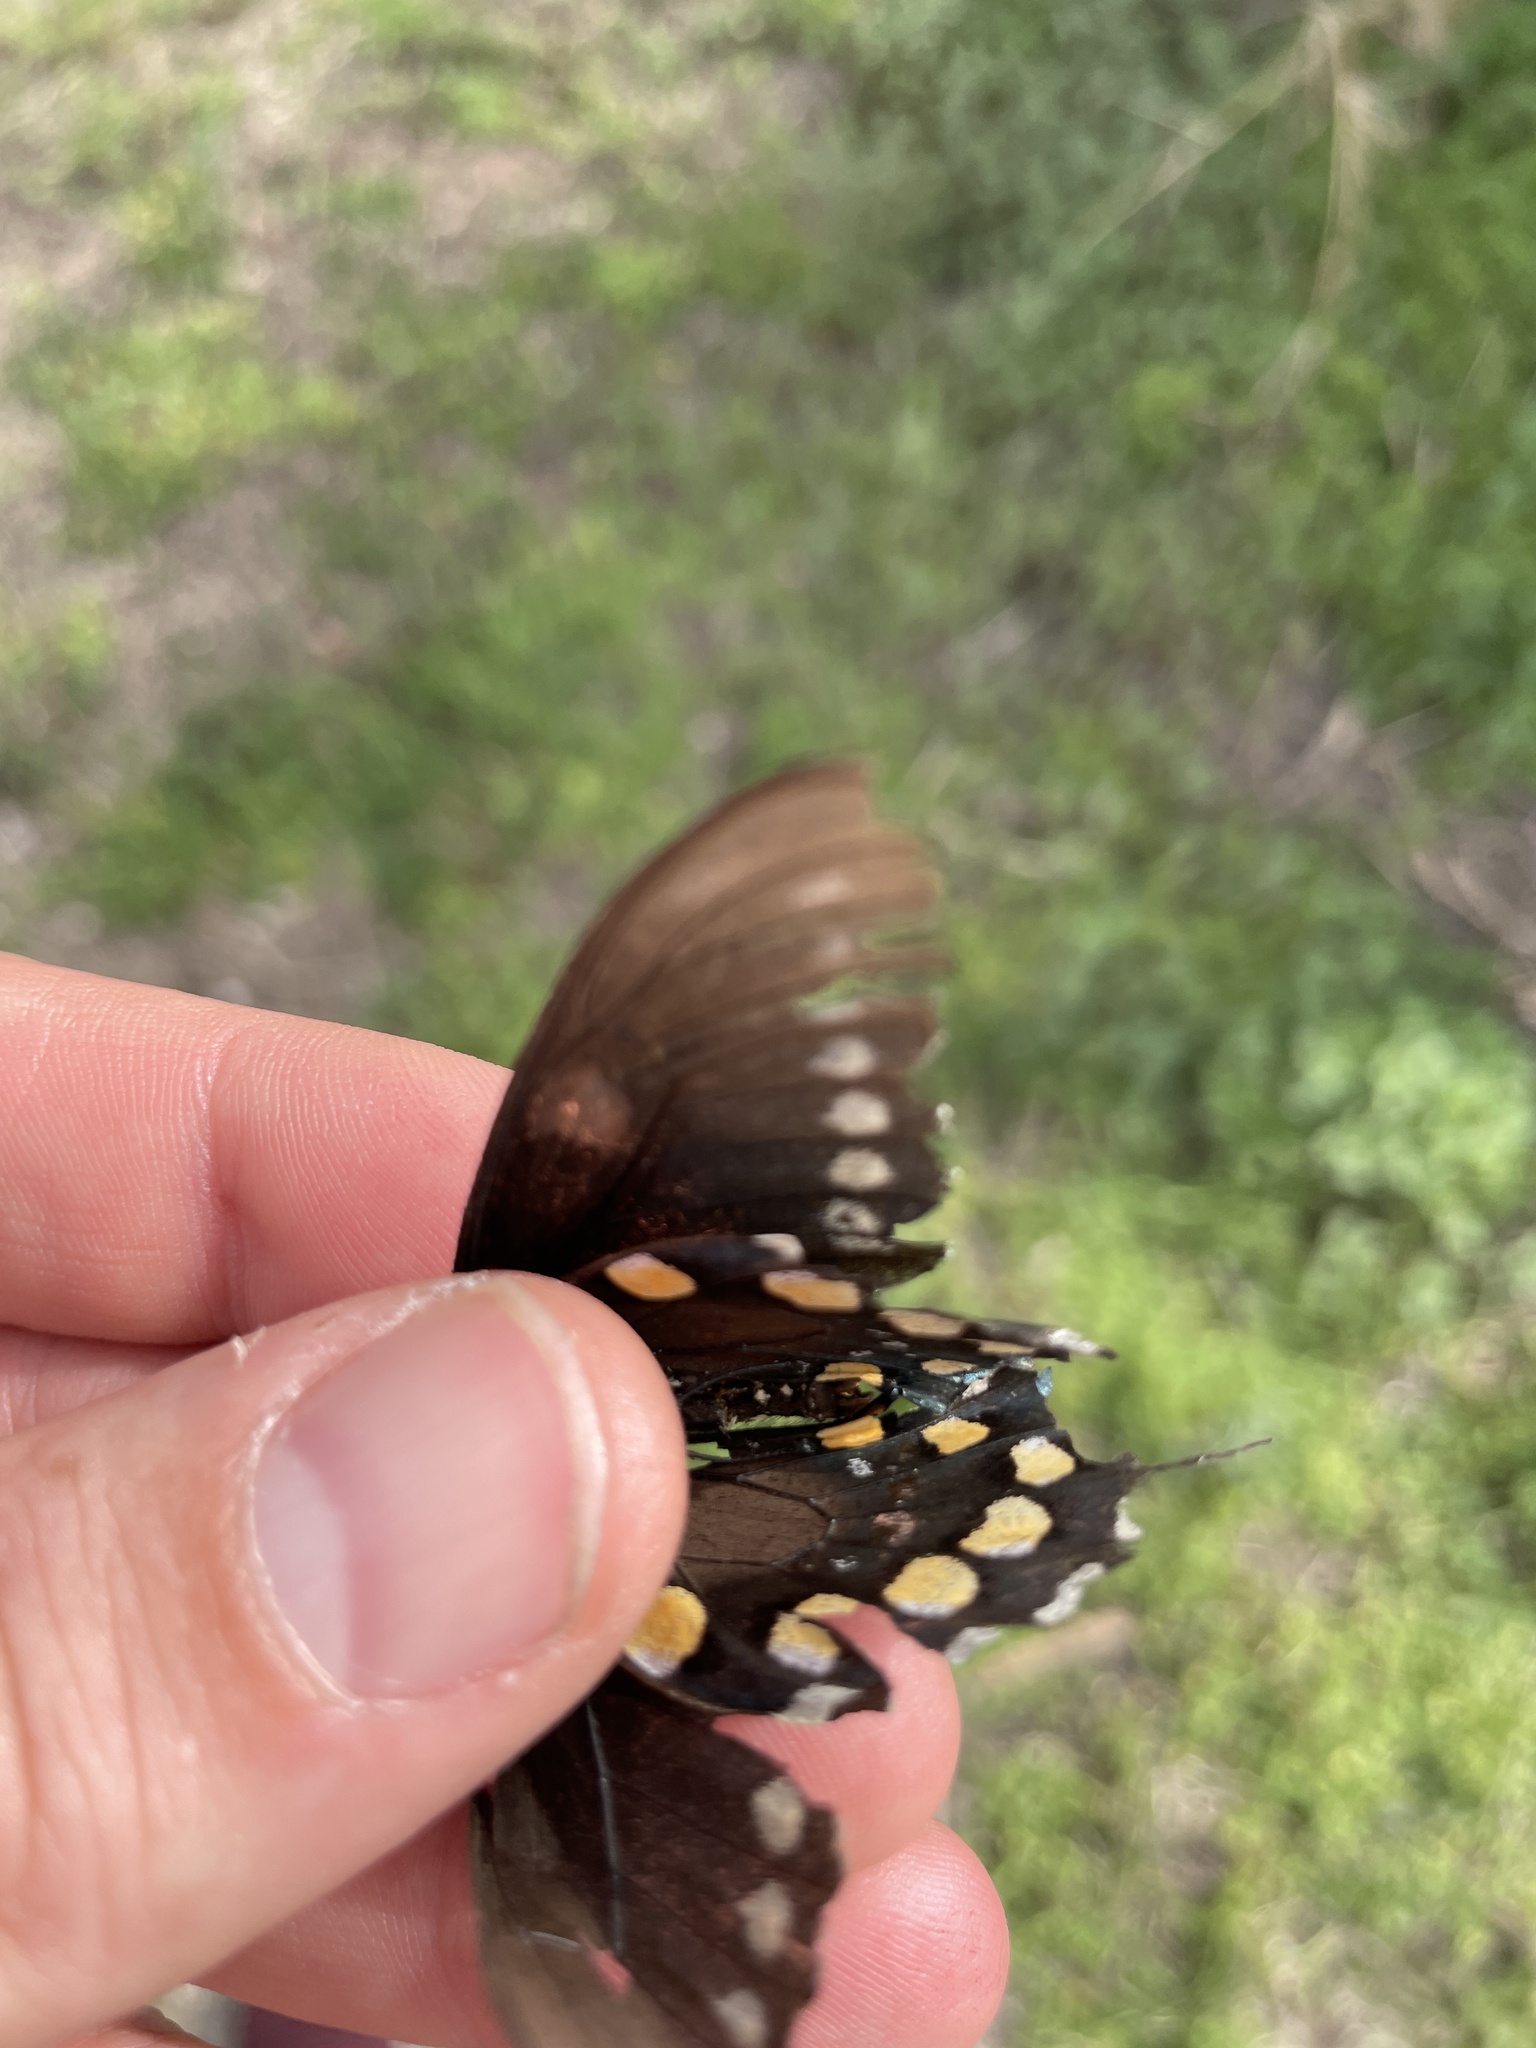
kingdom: Animalia
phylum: Arthropoda
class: Insecta
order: Lepidoptera
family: Papilionidae
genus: Battus
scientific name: Battus philenor
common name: Pipevine swallowtail
